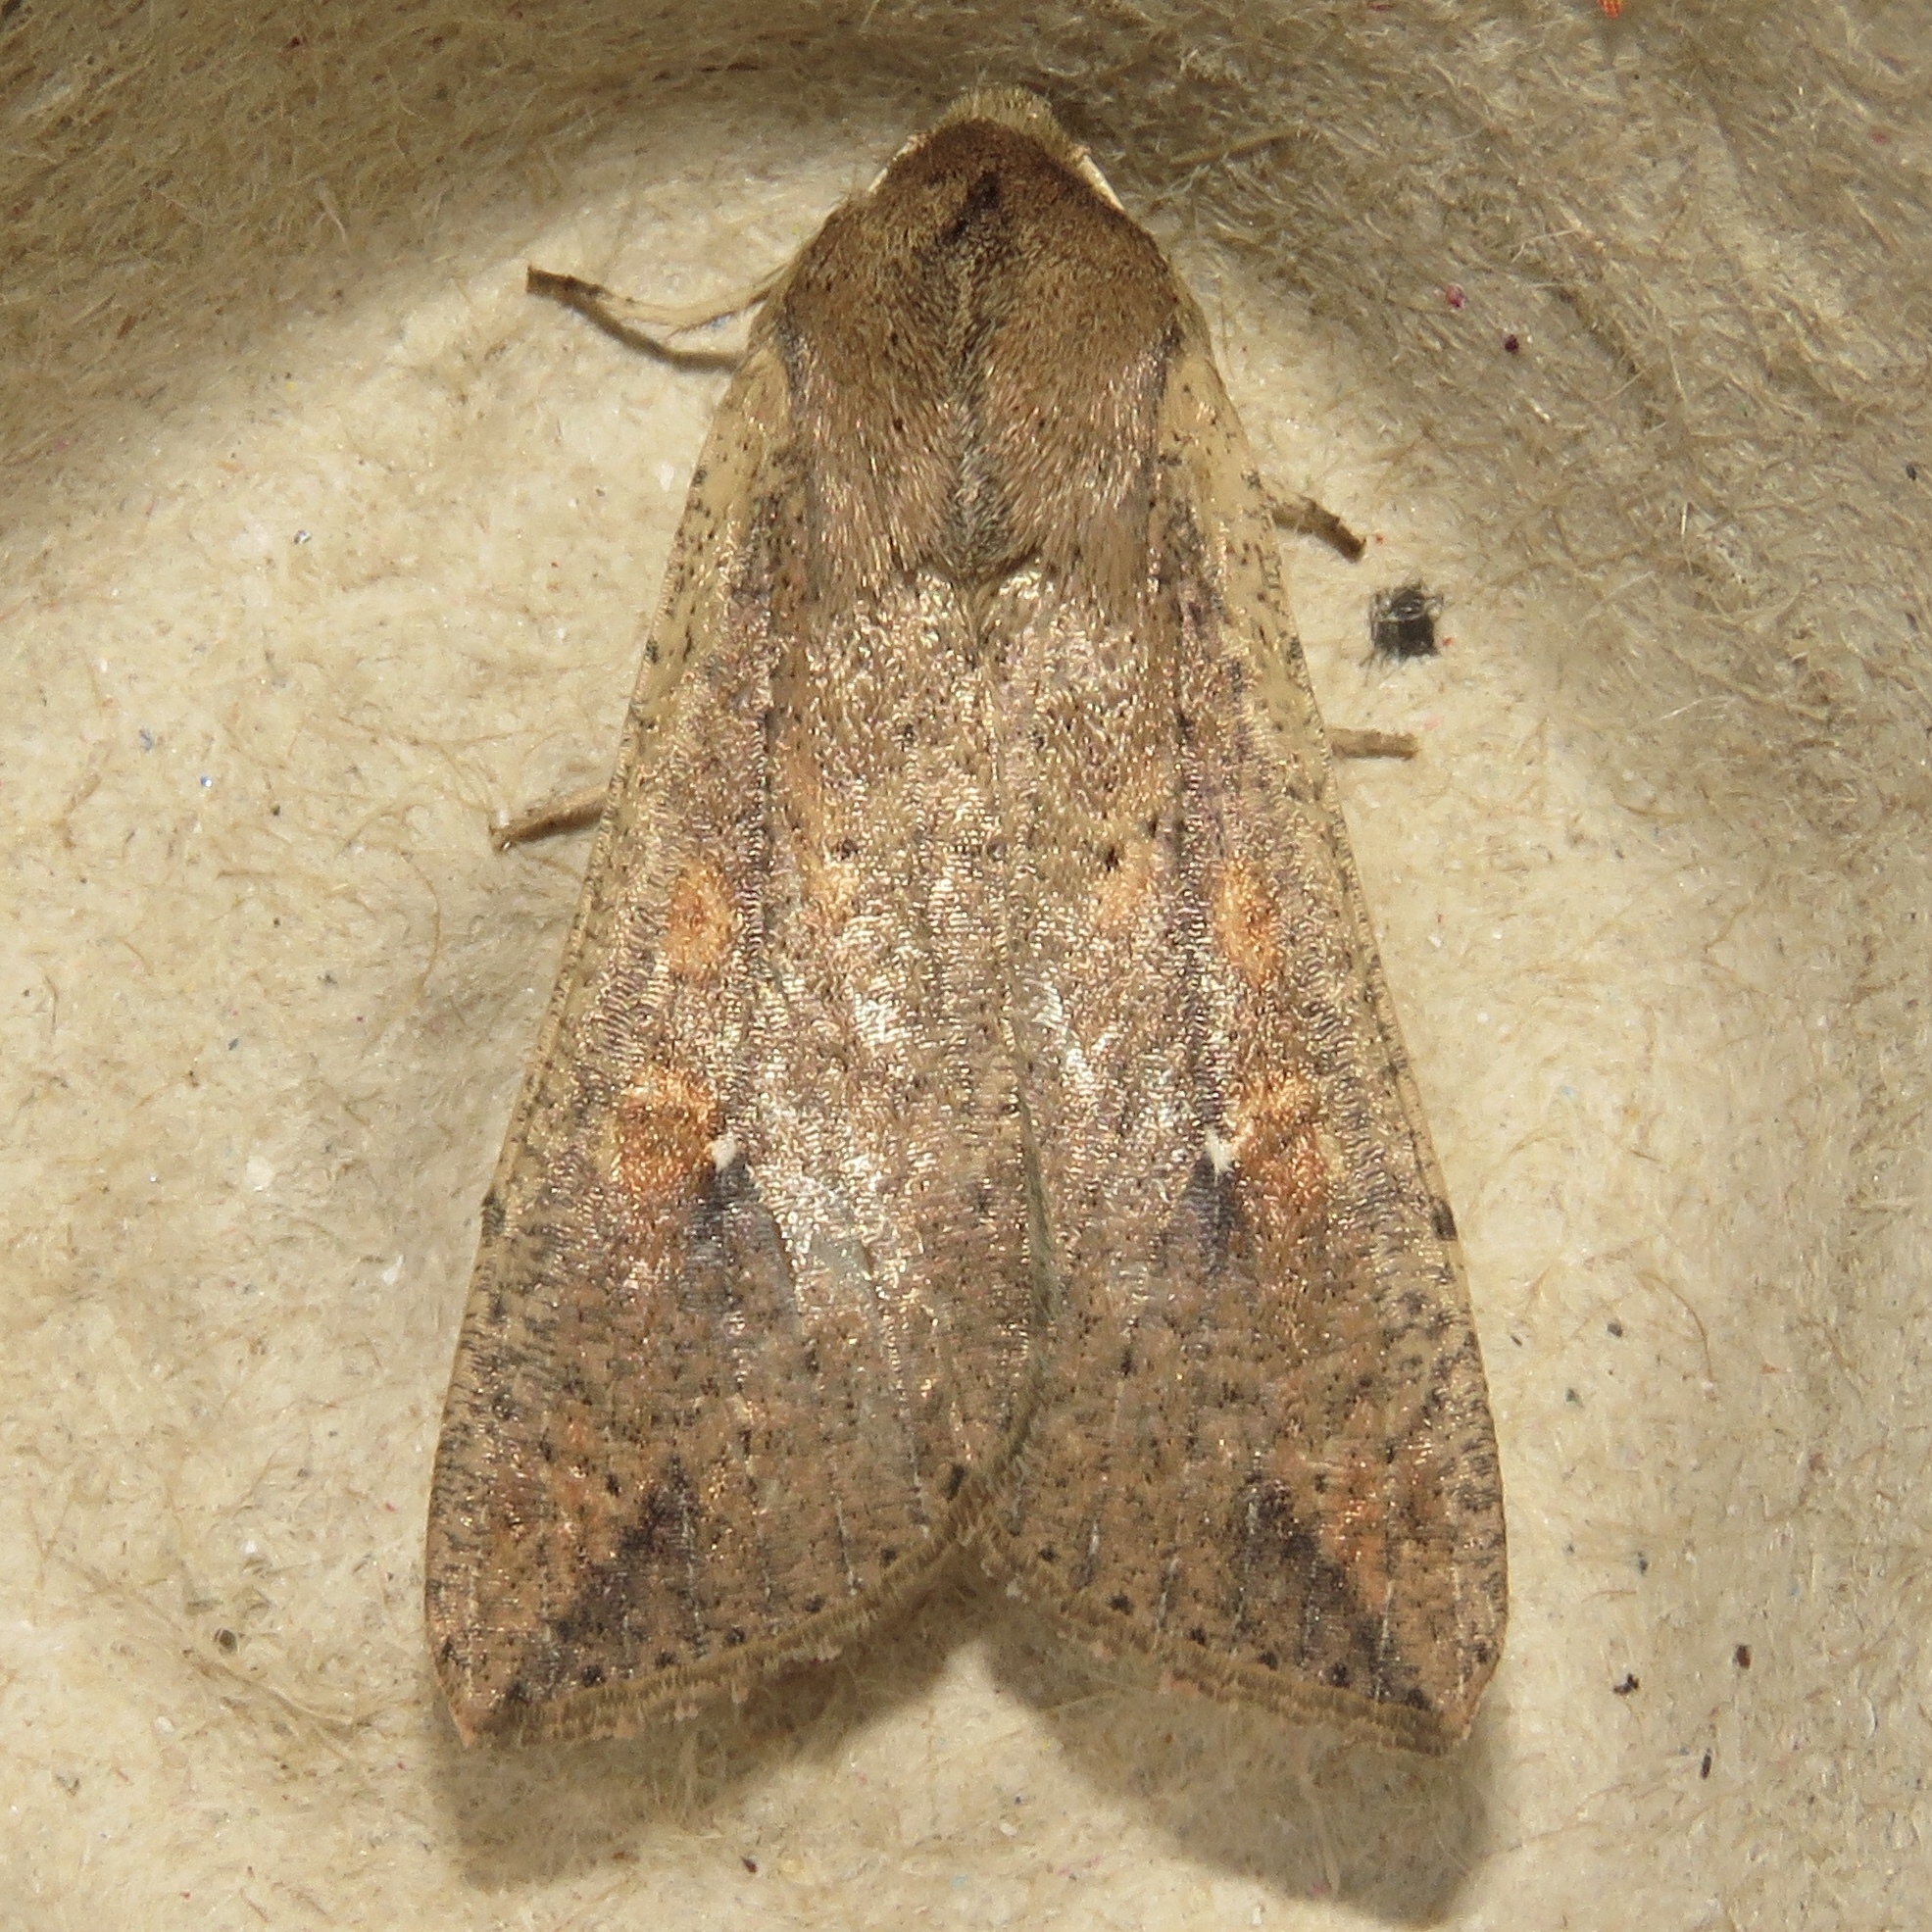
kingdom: Animalia
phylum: Arthropoda
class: Insecta
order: Lepidoptera
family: Noctuidae
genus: Mythimna
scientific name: Mythimna unipuncta
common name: White-speck
